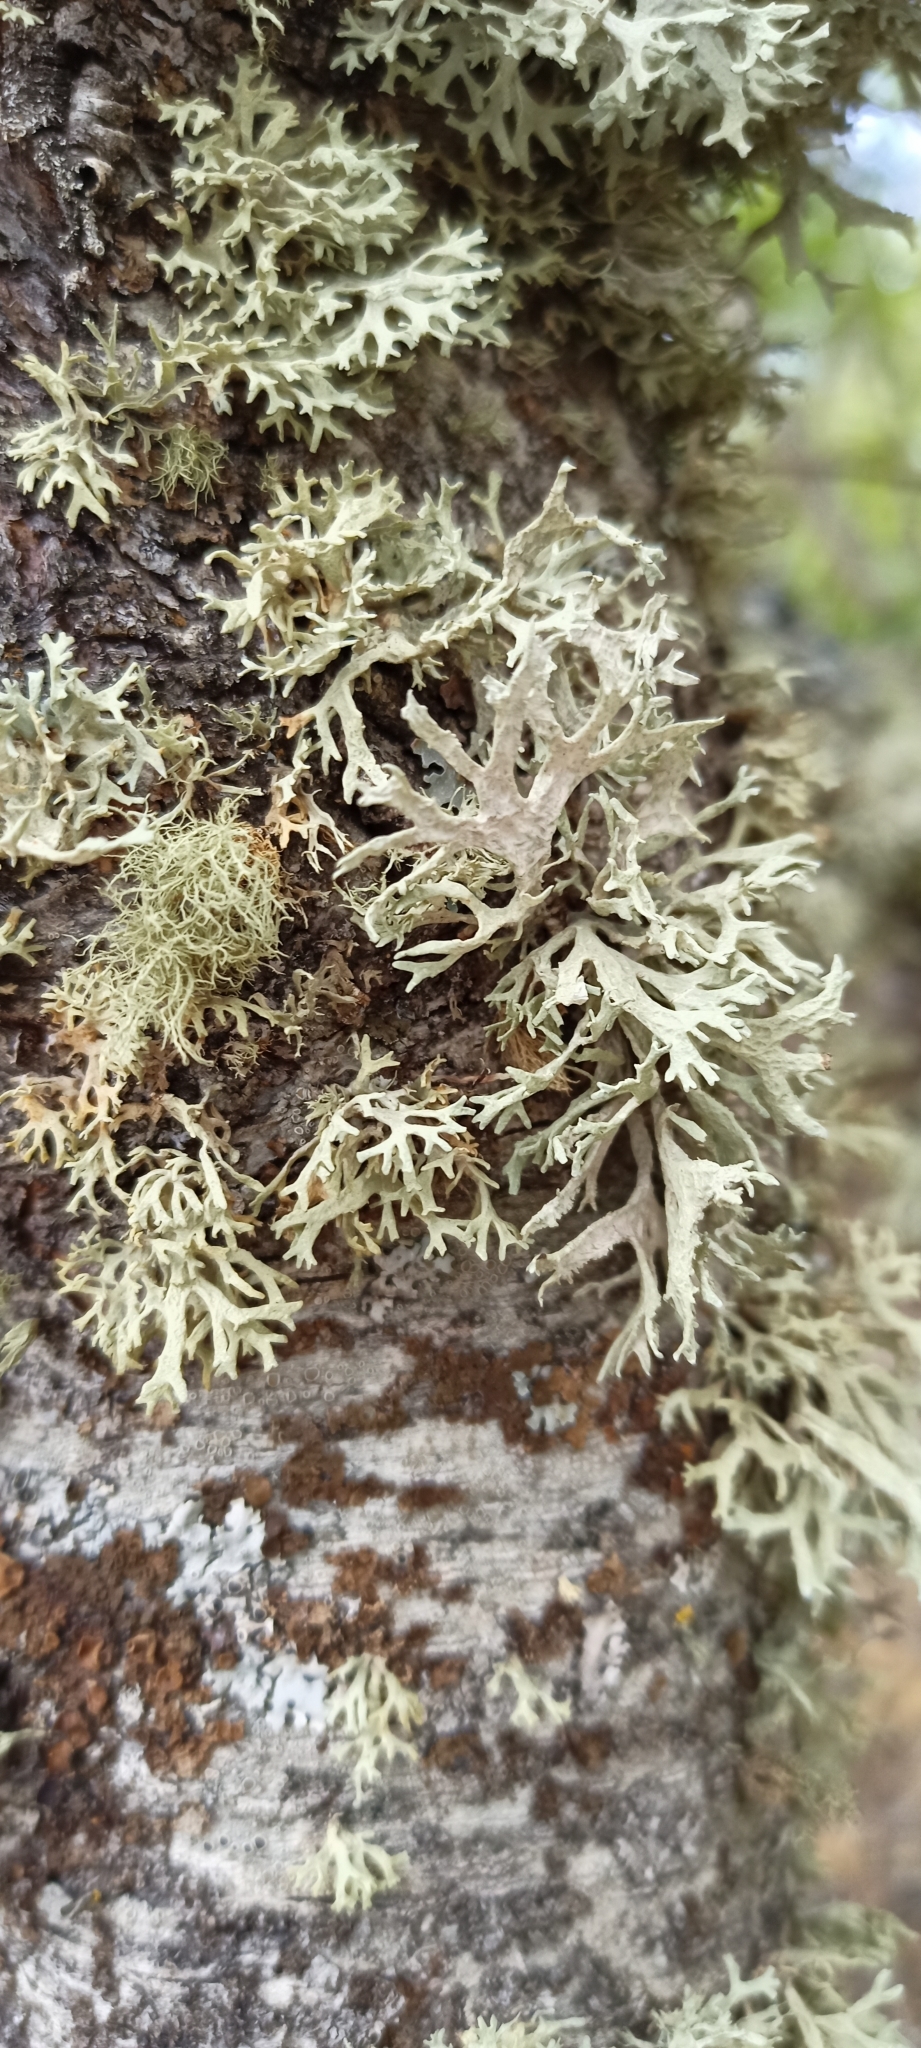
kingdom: Fungi
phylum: Ascomycota
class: Lecanoromycetes
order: Lecanorales
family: Parmeliaceae
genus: Evernia
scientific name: Evernia prunastri
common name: Oak moss
